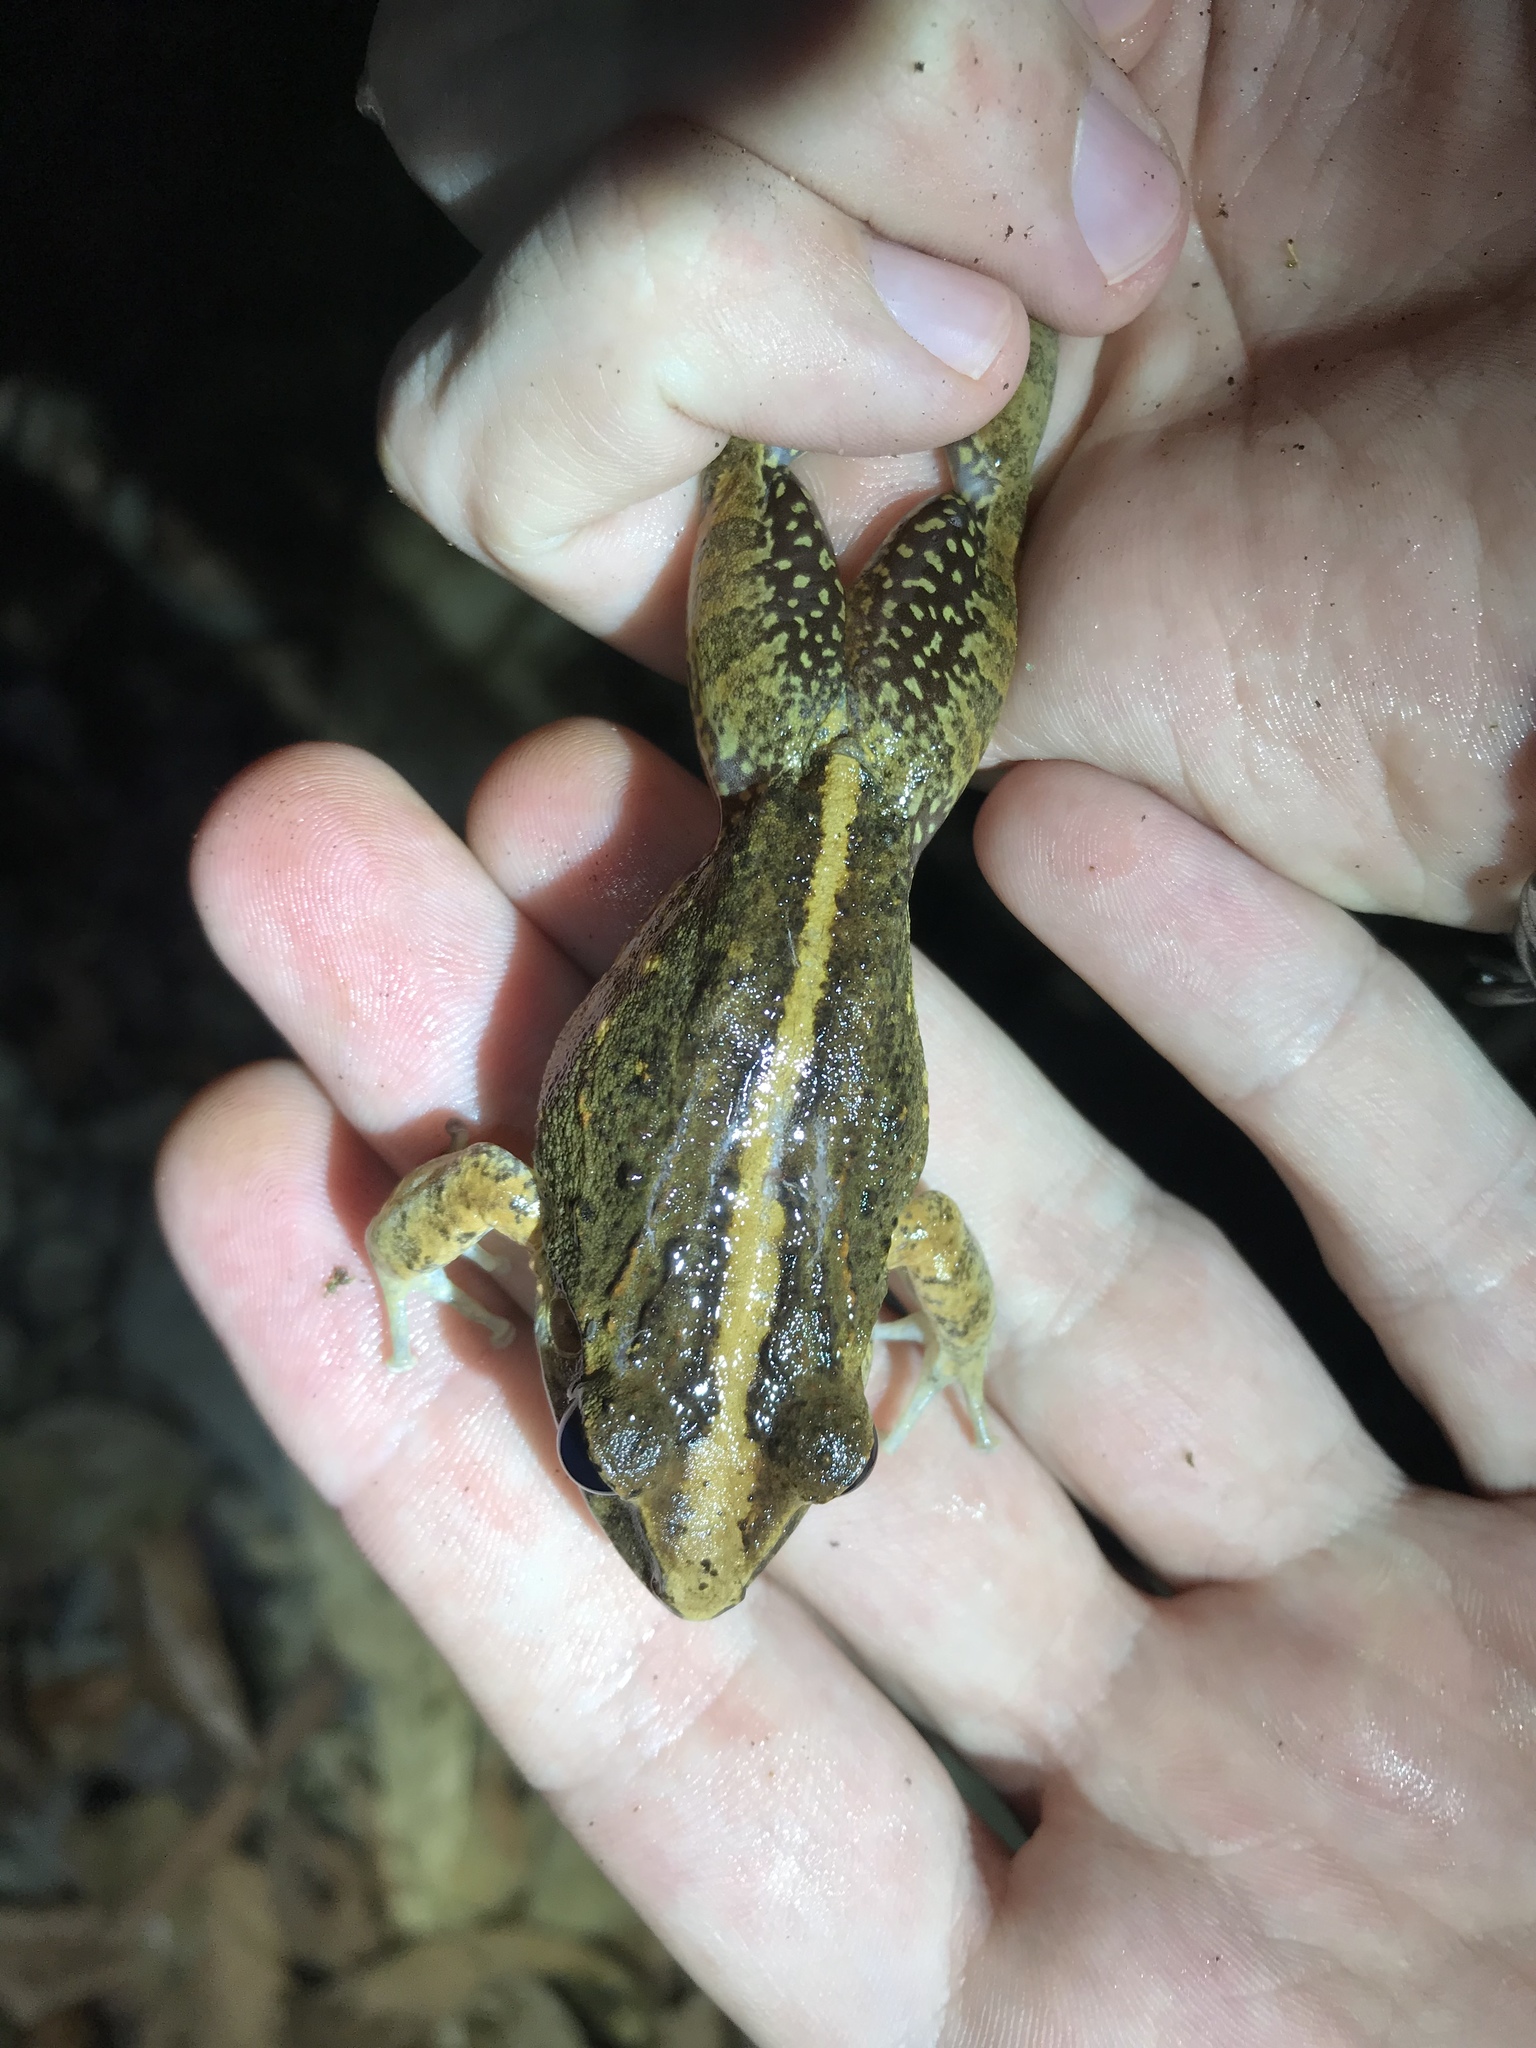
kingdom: Animalia
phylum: Chordata
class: Amphibia
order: Anura
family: Craugastoridae
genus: Craugastor
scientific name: Craugastor fitzingeri
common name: Fitzinger's robber frog
